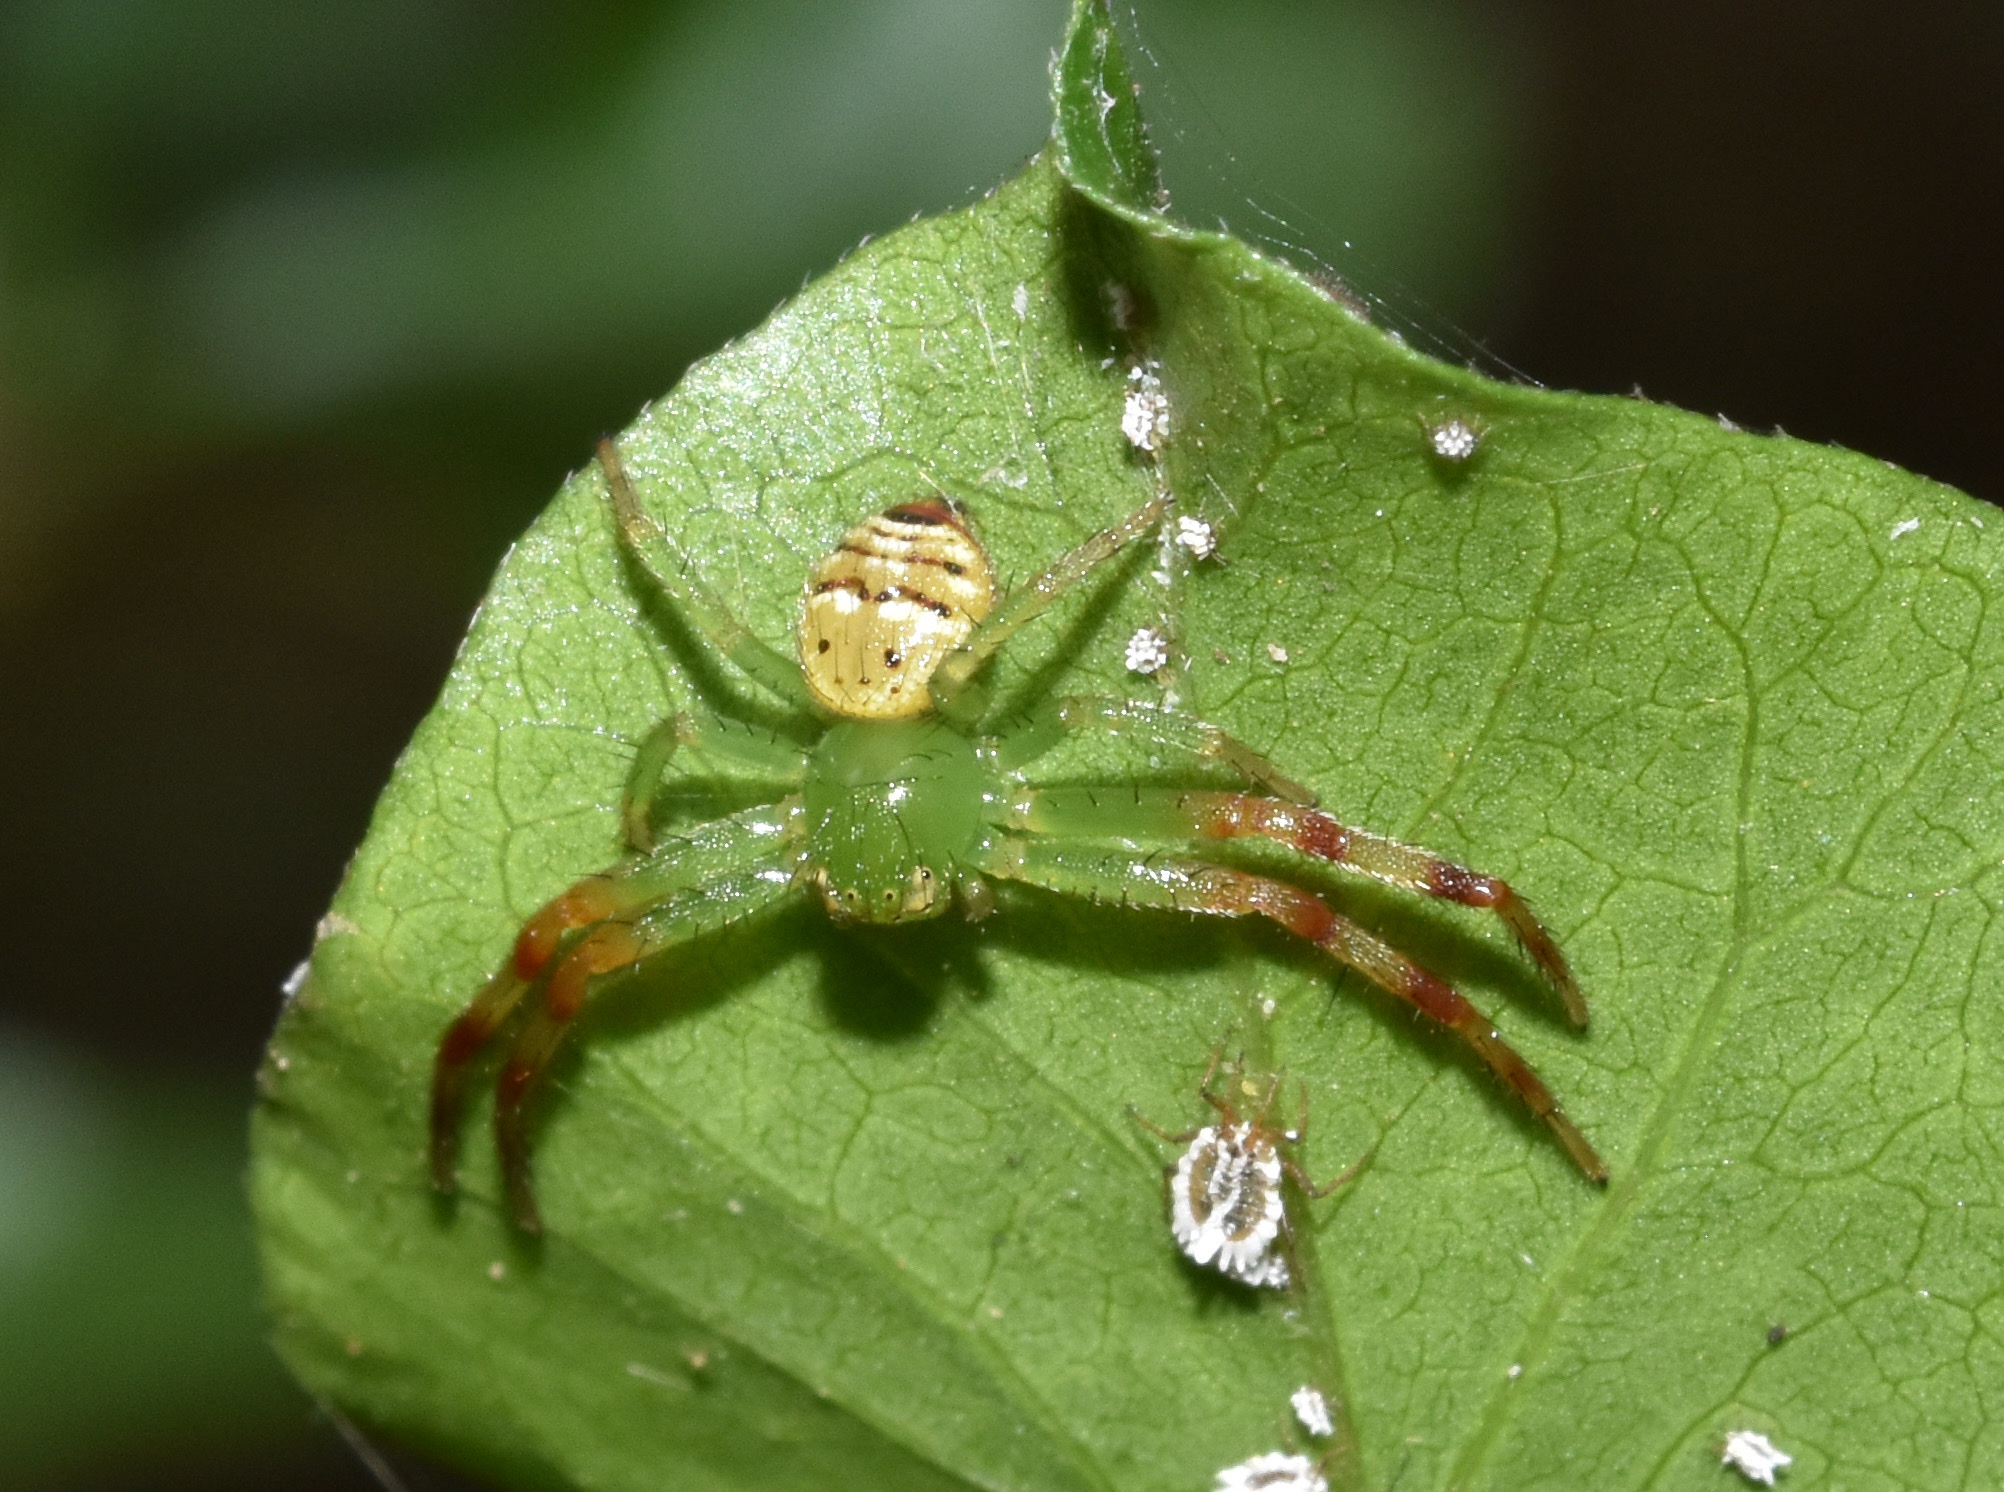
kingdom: Animalia
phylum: Arthropoda
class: Arachnida
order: Araneae
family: Thomisidae
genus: Synema
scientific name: Synema diana
